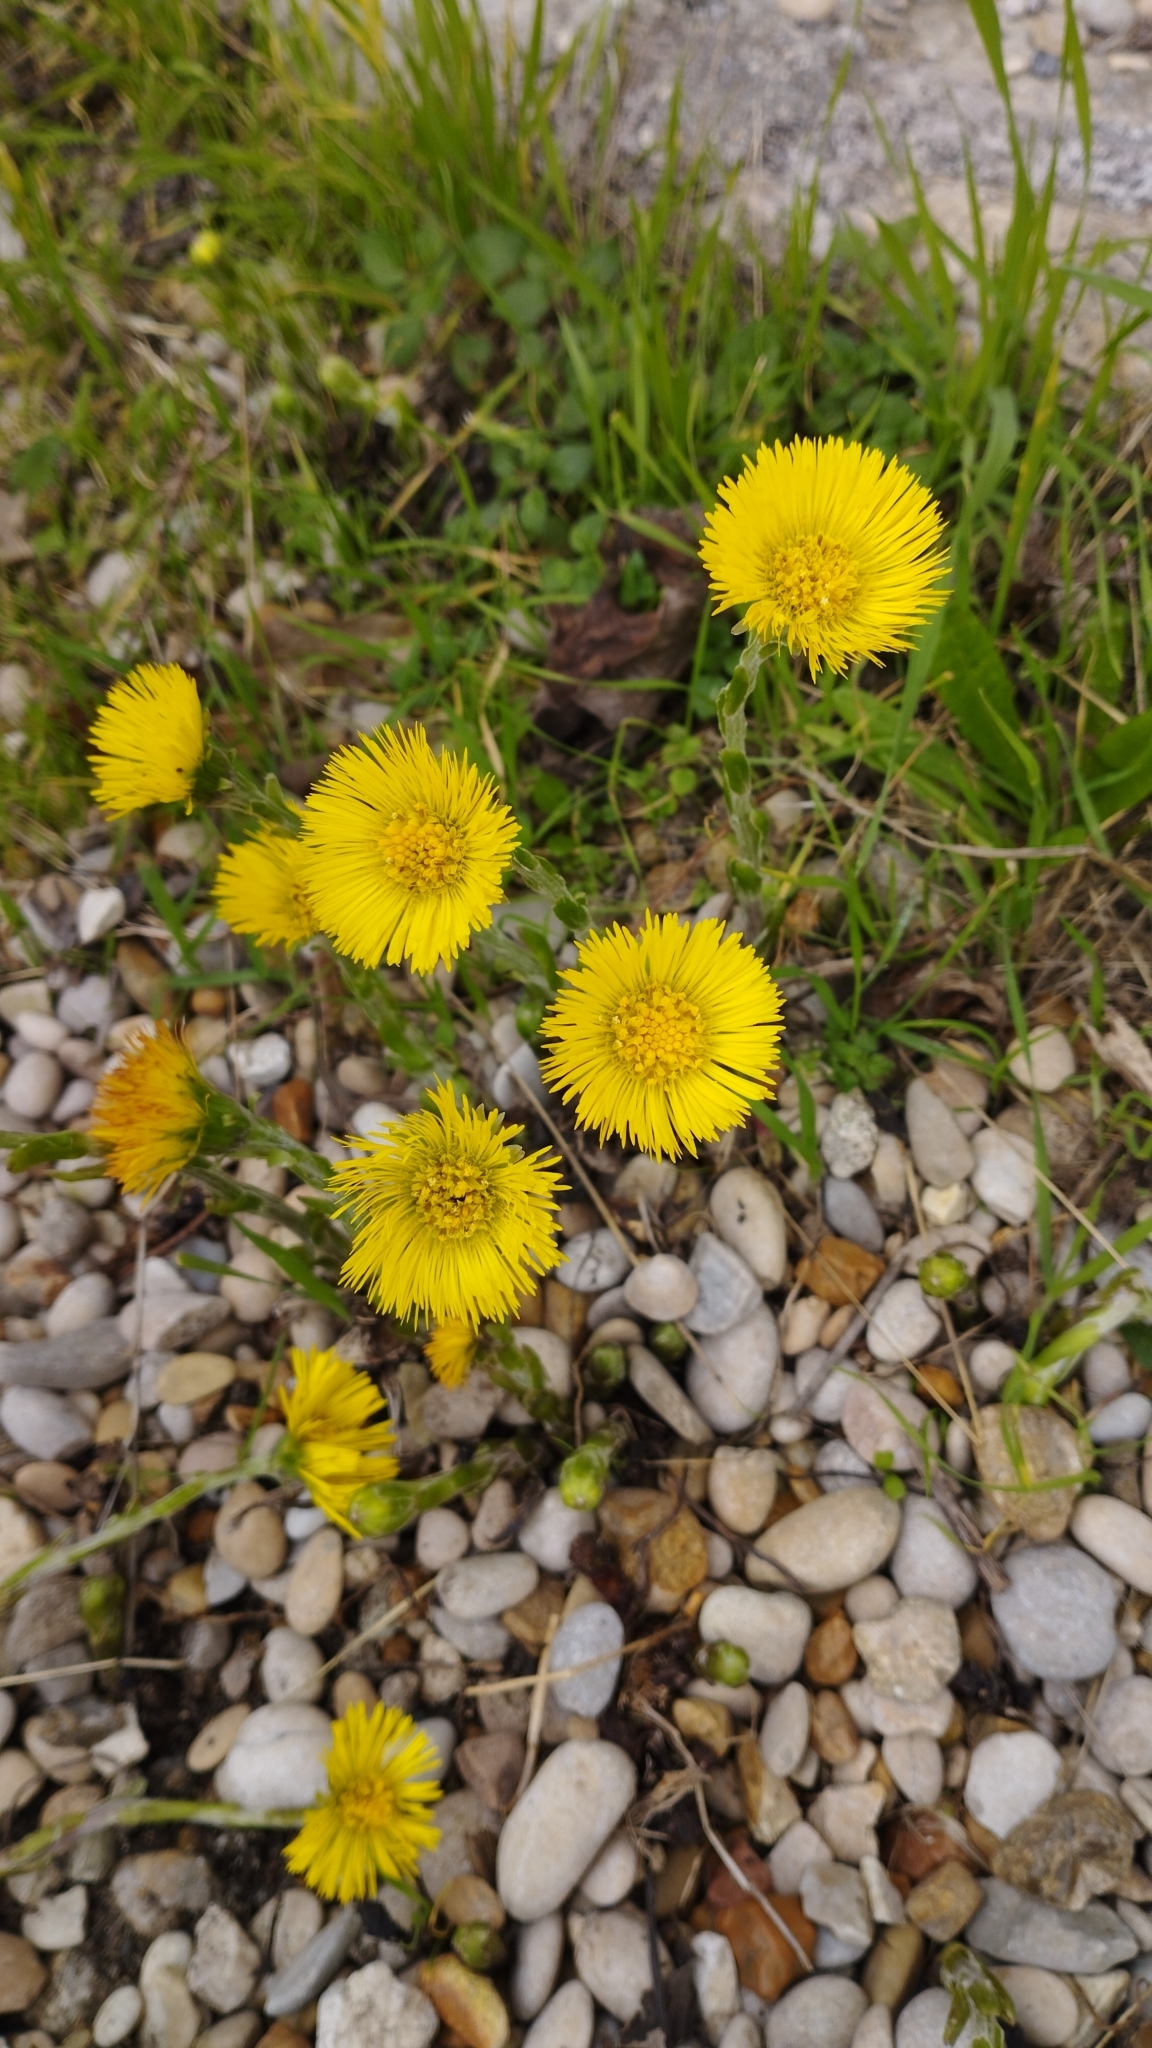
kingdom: Plantae
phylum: Tracheophyta
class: Magnoliopsida
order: Asterales
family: Asteraceae
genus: Tussilago
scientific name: Tussilago farfara
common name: Coltsfoot
